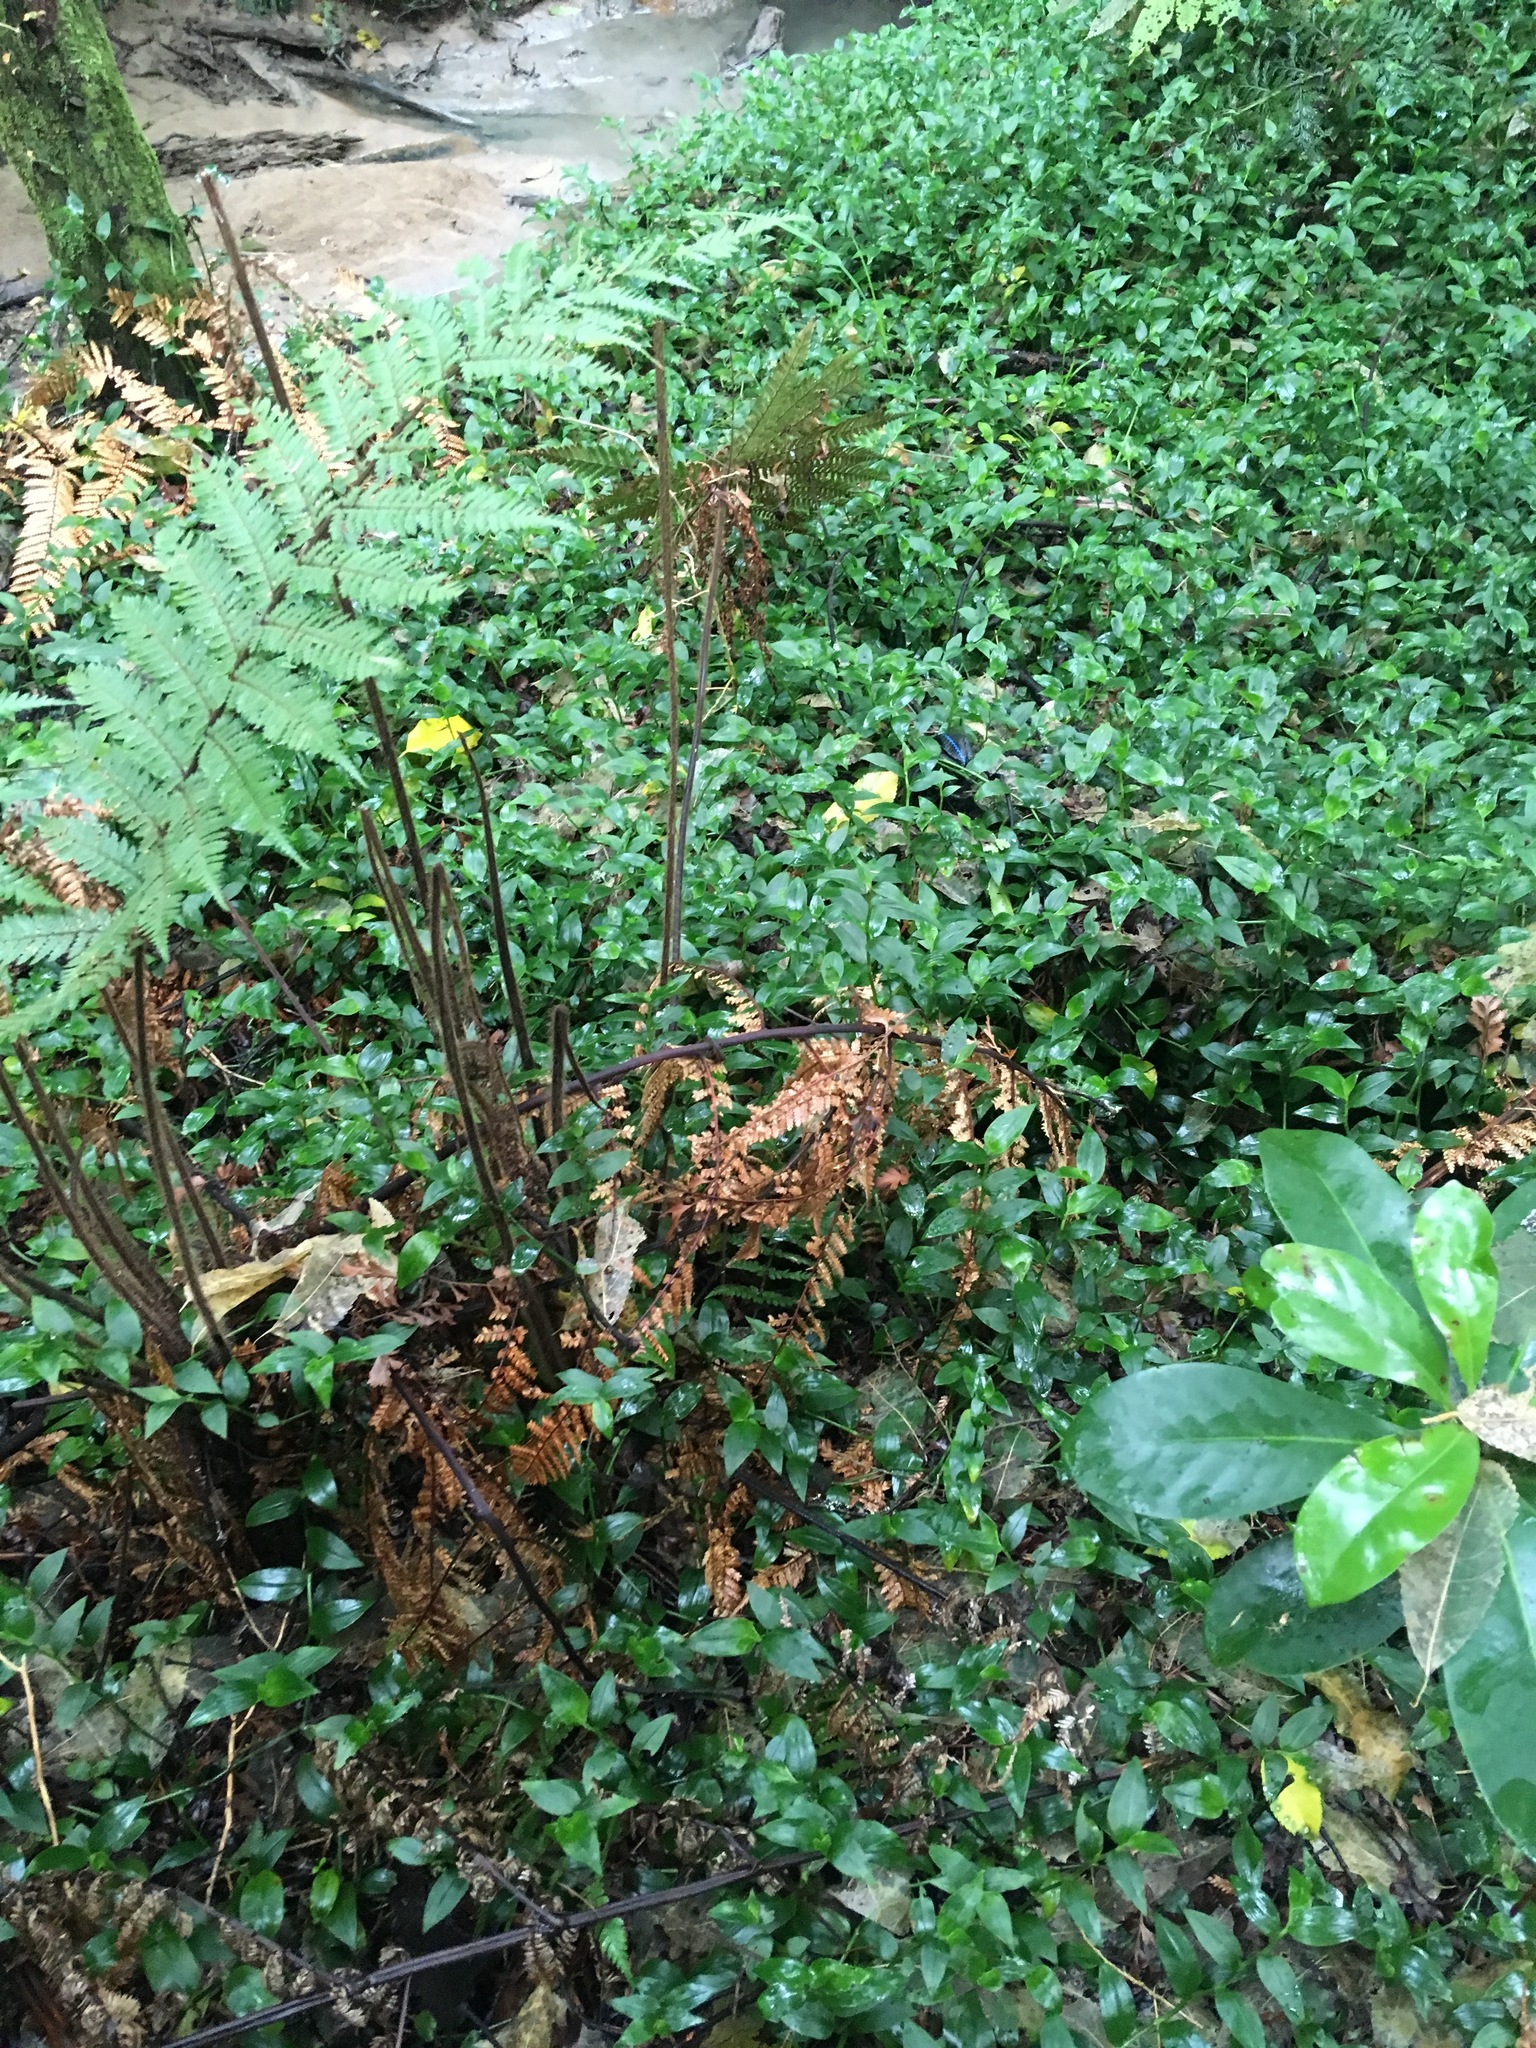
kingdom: Plantae
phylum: Tracheophyta
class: Liliopsida
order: Commelinales
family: Commelinaceae
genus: Tradescantia
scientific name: Tradescantia fluminensis
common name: Wandering-jew
